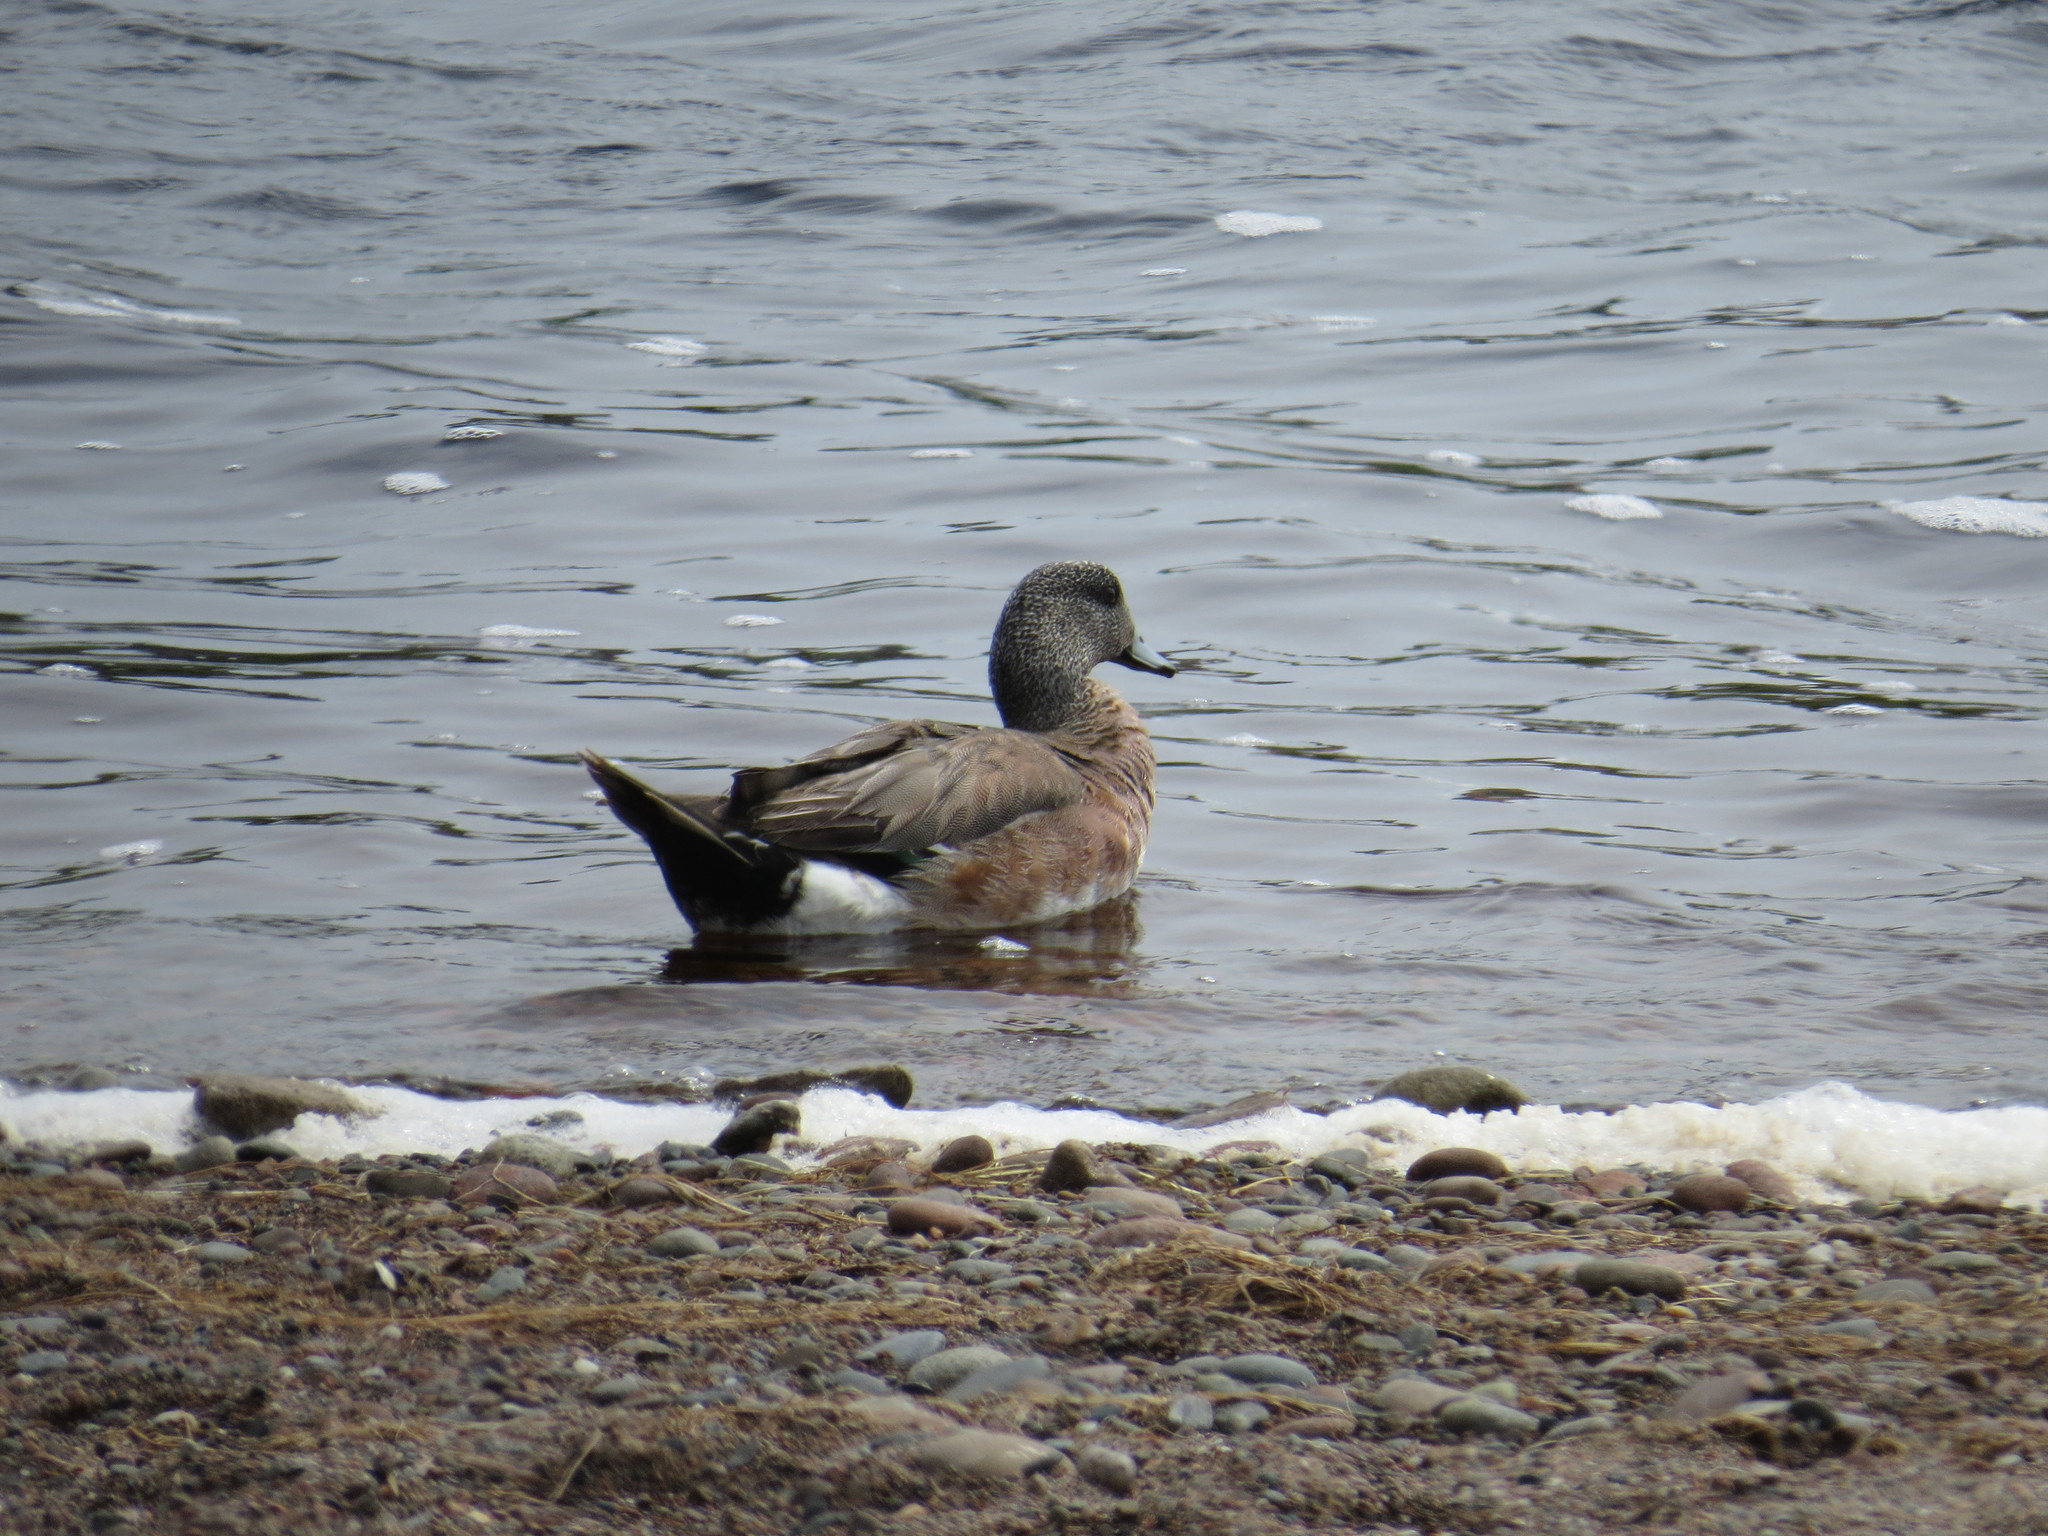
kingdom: Animalia
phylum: Chordata
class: Aves
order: Anseriformes
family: Anatidae
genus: Mareca
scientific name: Mareca americana
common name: American wigeon
